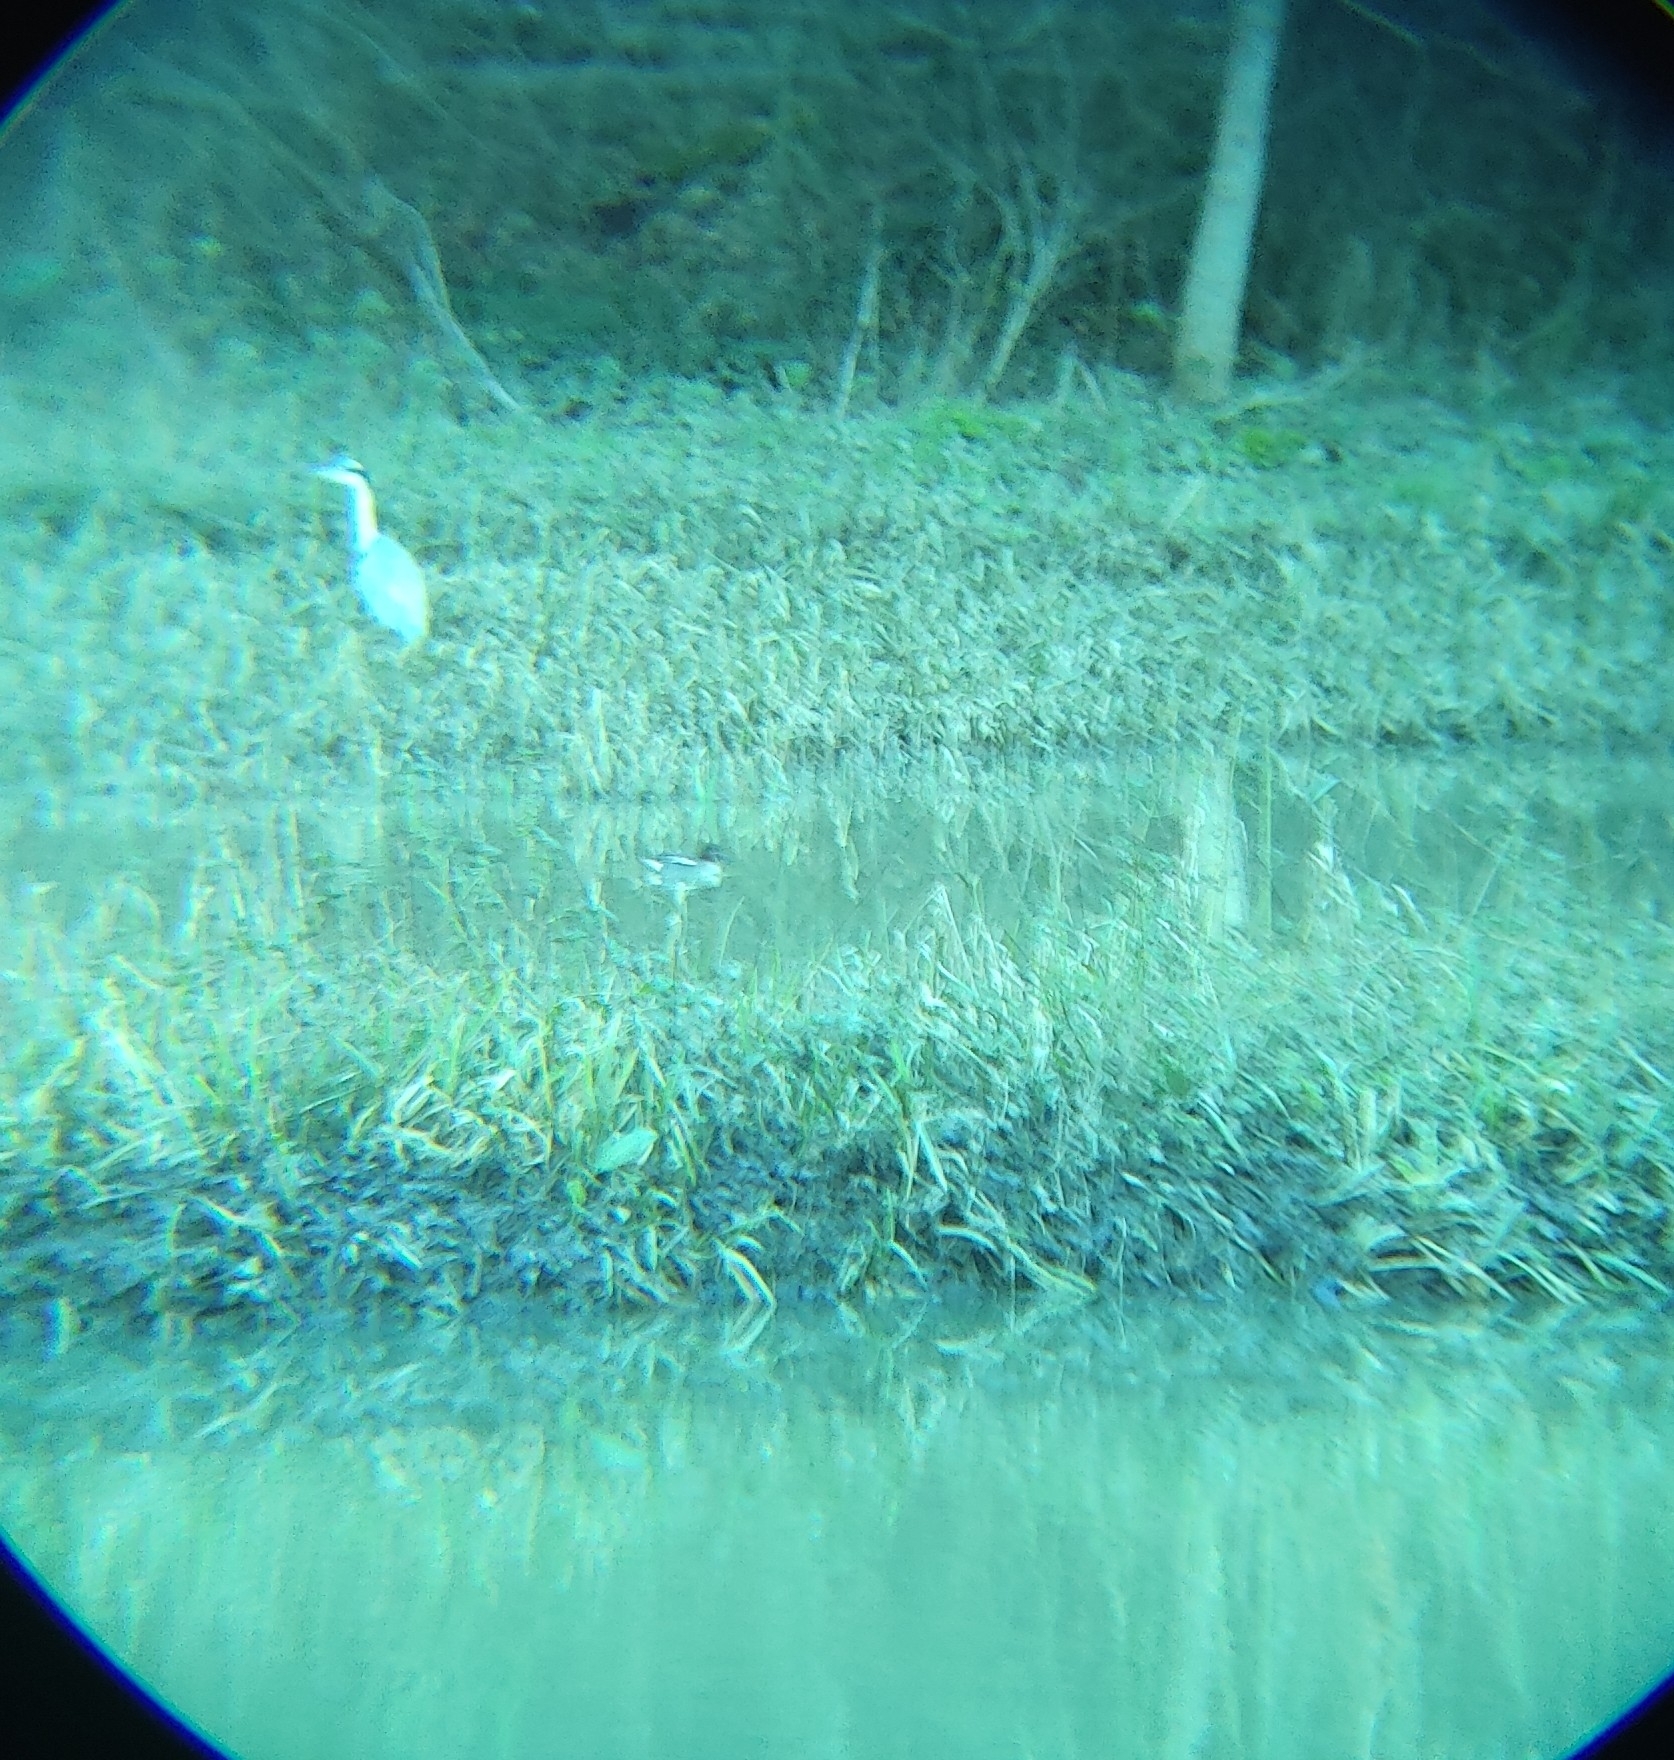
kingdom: Animalia
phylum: Chordata
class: Aves
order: Anseriformes
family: Anatidae
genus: Anas
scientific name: Anas crecca
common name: Eurasian teal
